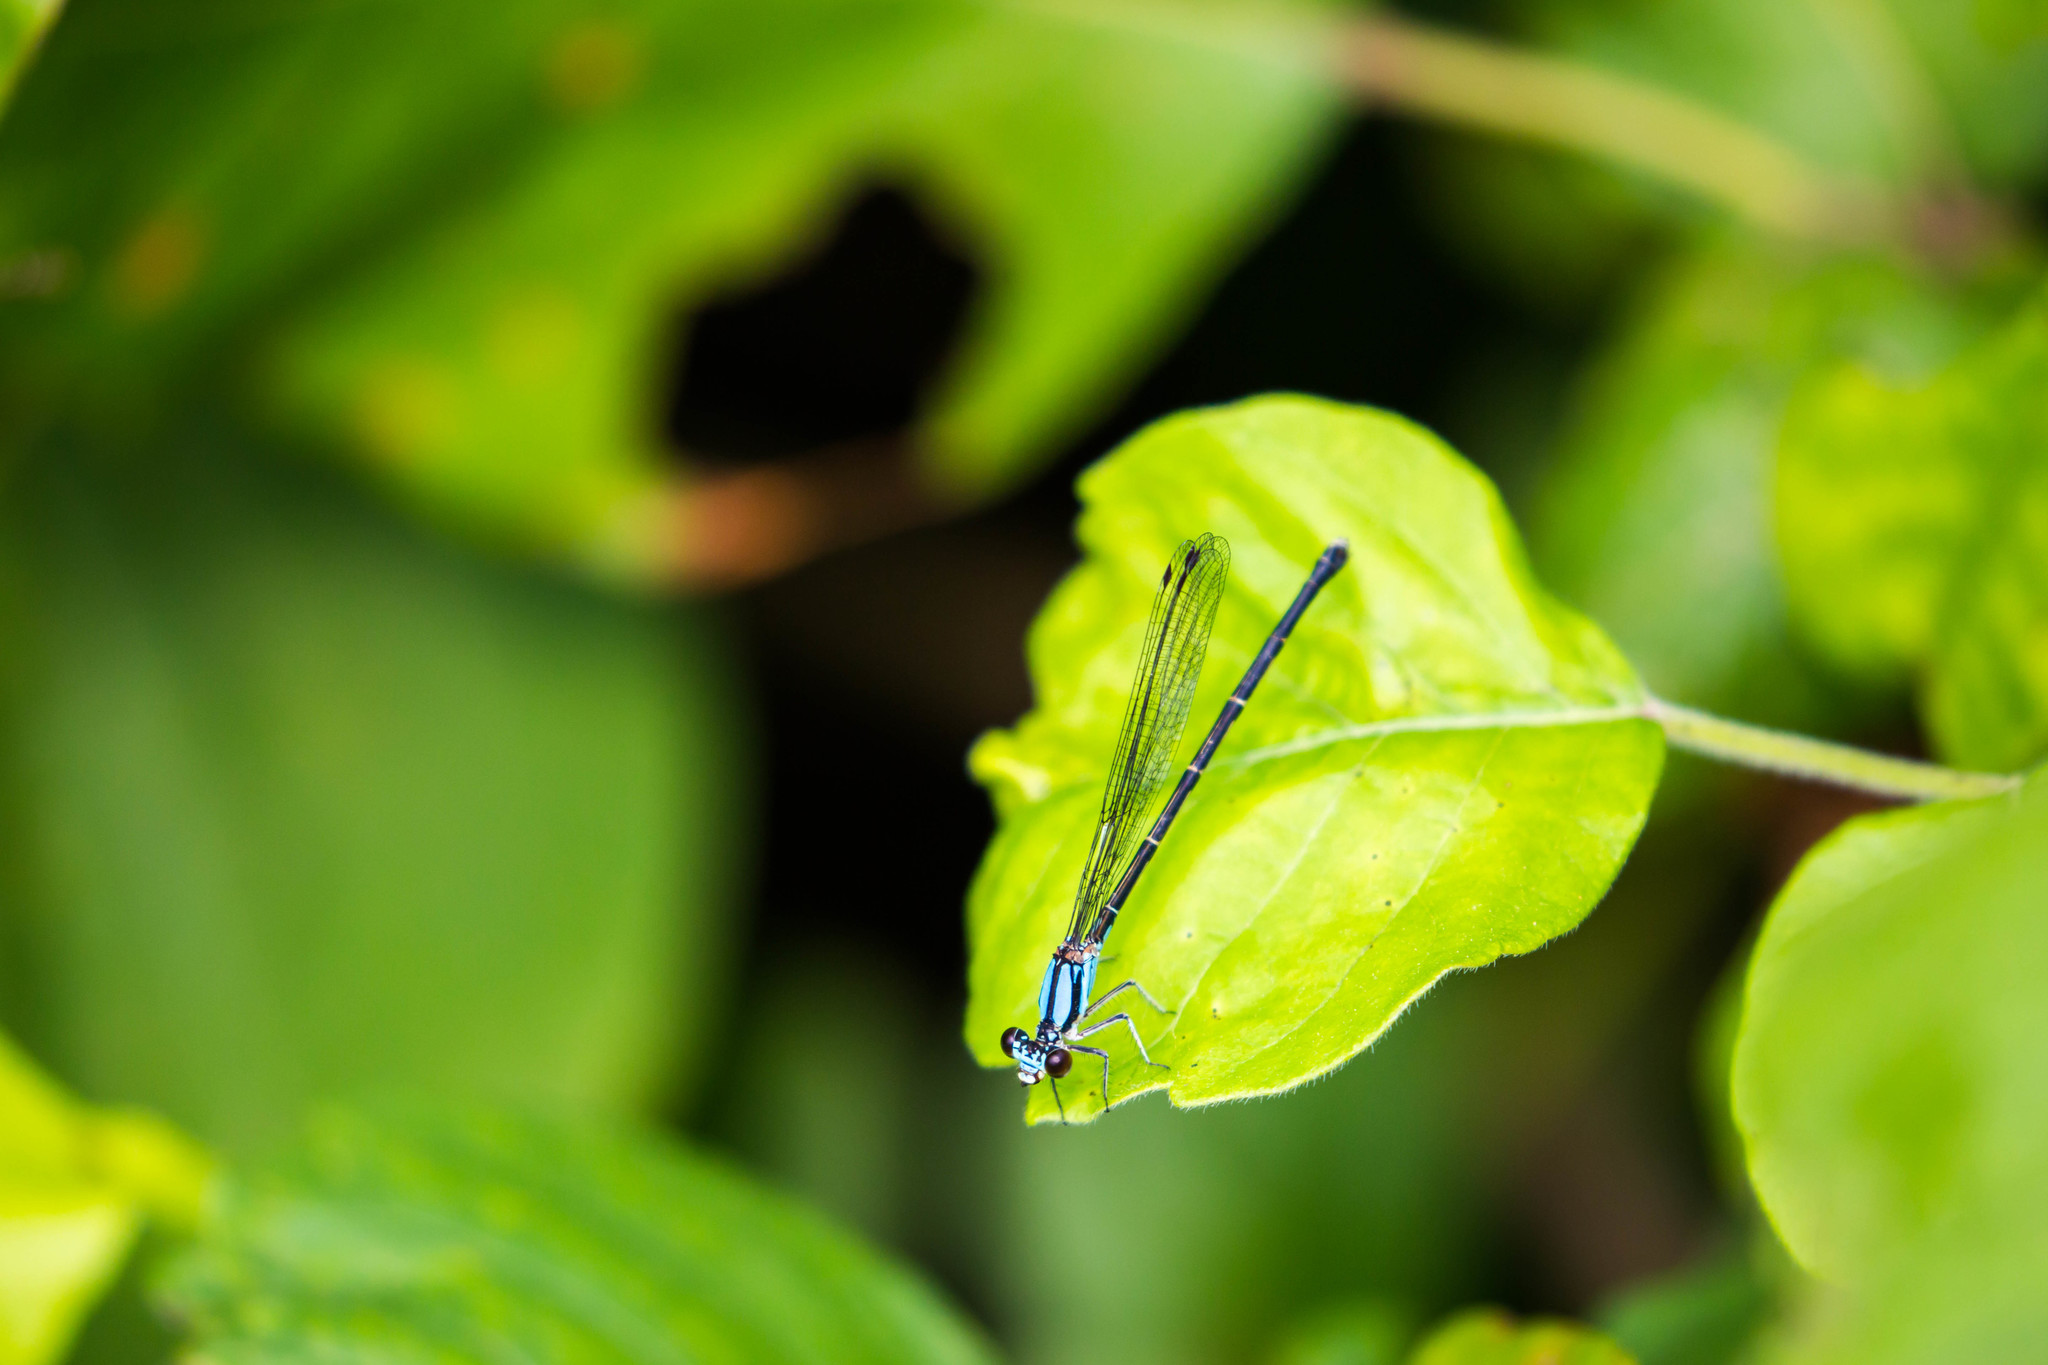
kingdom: Animalia
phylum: Arthropoda
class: Insecta
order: Odonata
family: Coenagrionidae
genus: Argia
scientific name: Argia tibialis
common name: Blue-tipped dancer
